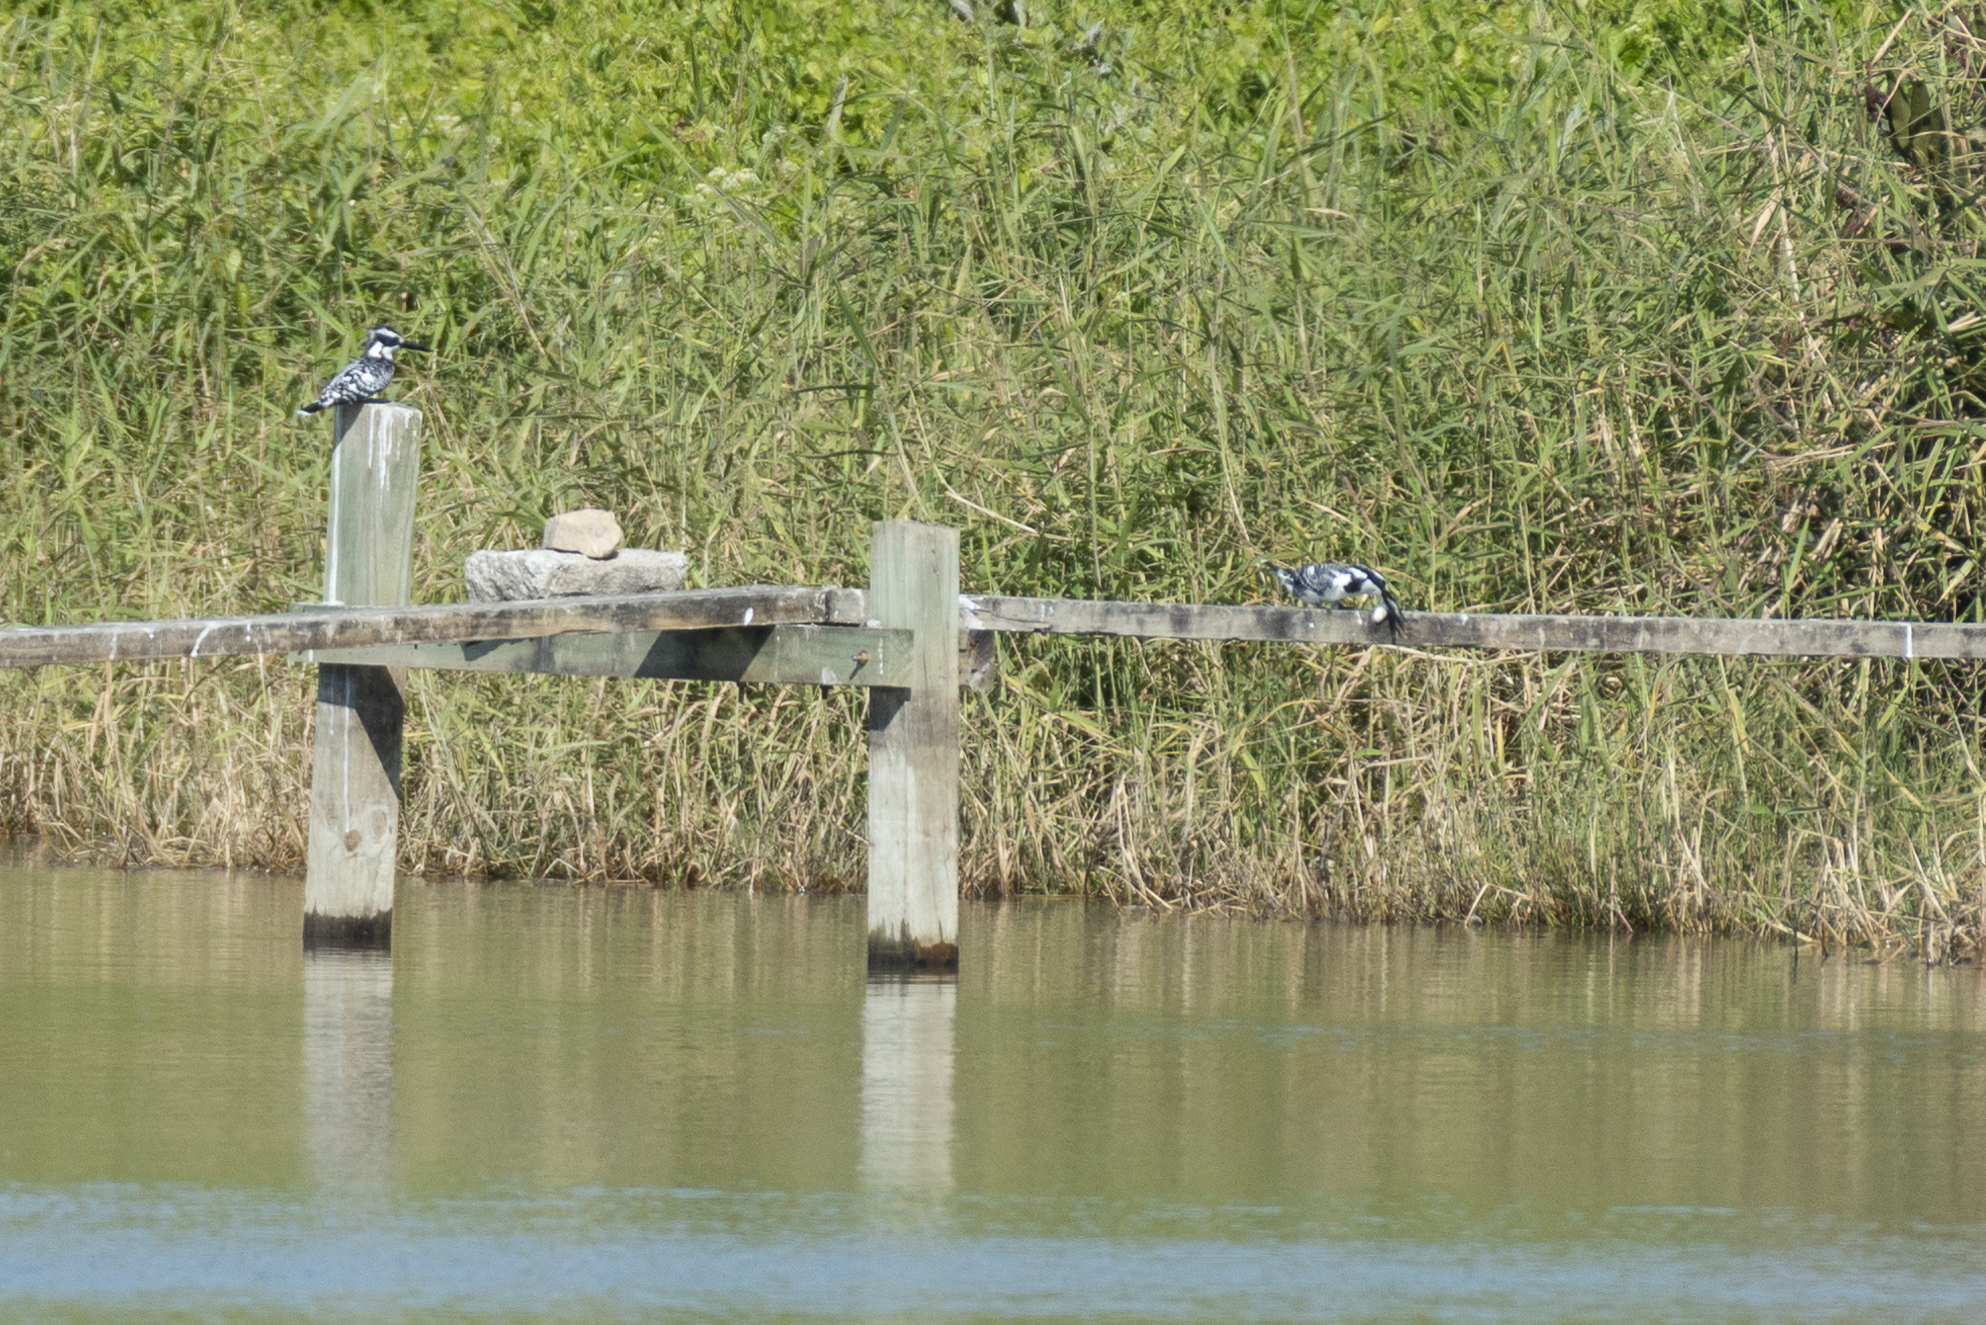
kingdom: Animalia
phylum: Chordata
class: Aves
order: Coraciiformes
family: Alcedinidae
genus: Ceryle
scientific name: Ceryle rudis
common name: Pied kingfisher
